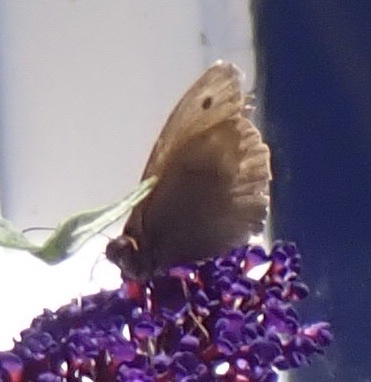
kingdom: Animalia
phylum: Arthropoda
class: Insecta
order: Lepidoptera
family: Nymphalidae
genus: Maniola
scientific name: Maniola jurtina
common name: Meadow brown
